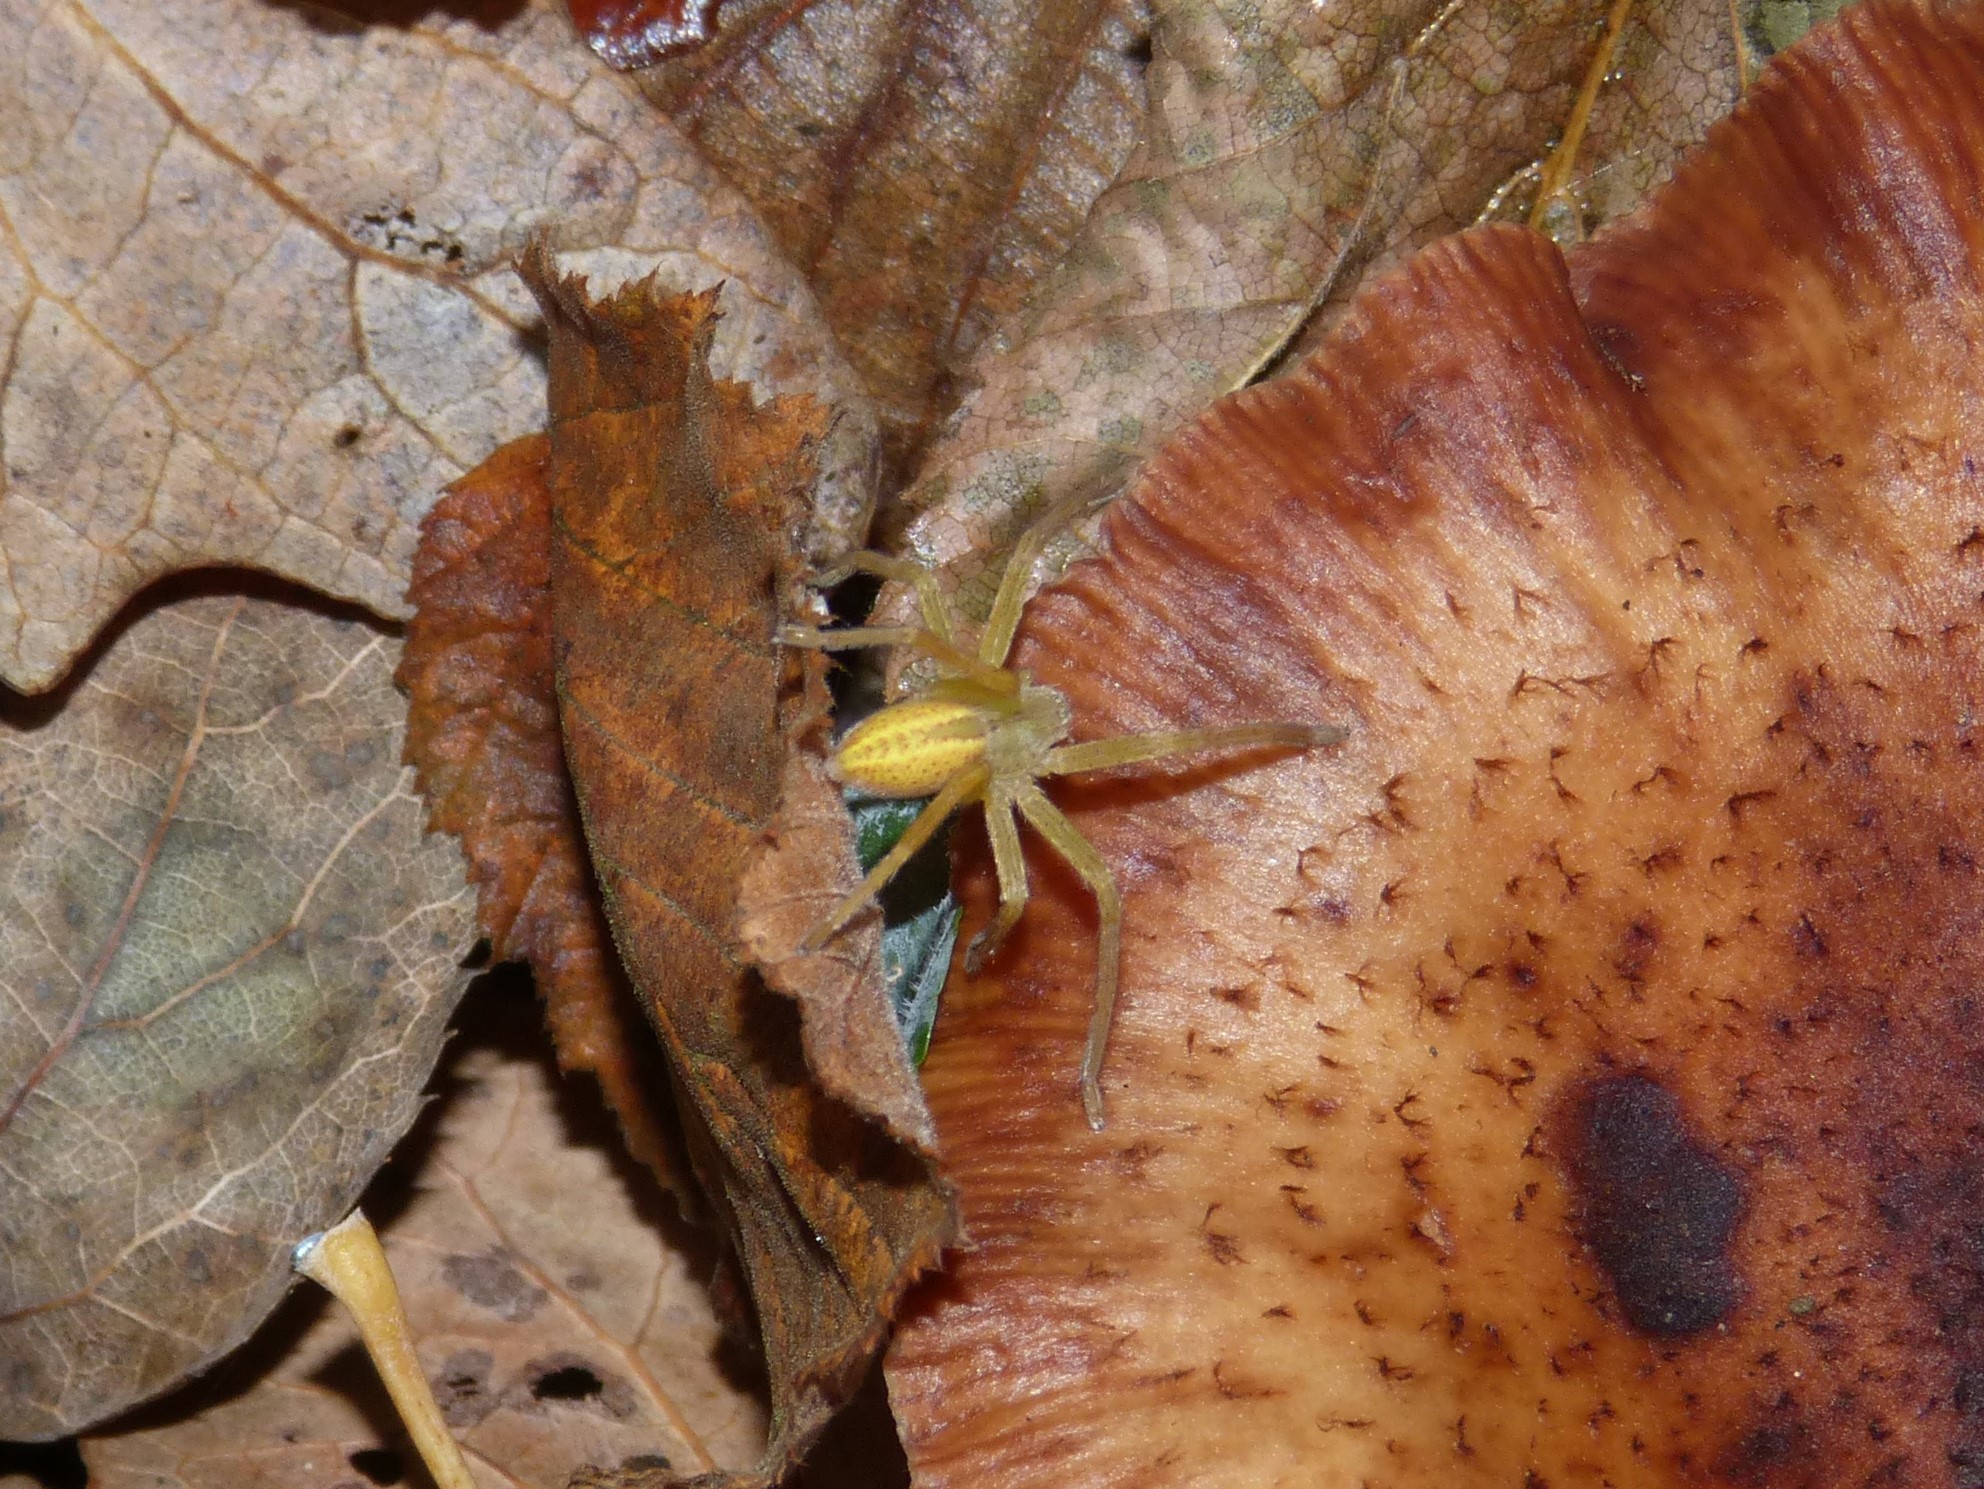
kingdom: Animalia
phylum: Arthropoda
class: Arachnida
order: Araneae
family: Sparassidae
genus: Micrommata
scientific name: Micrommata virescens
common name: Green spider
